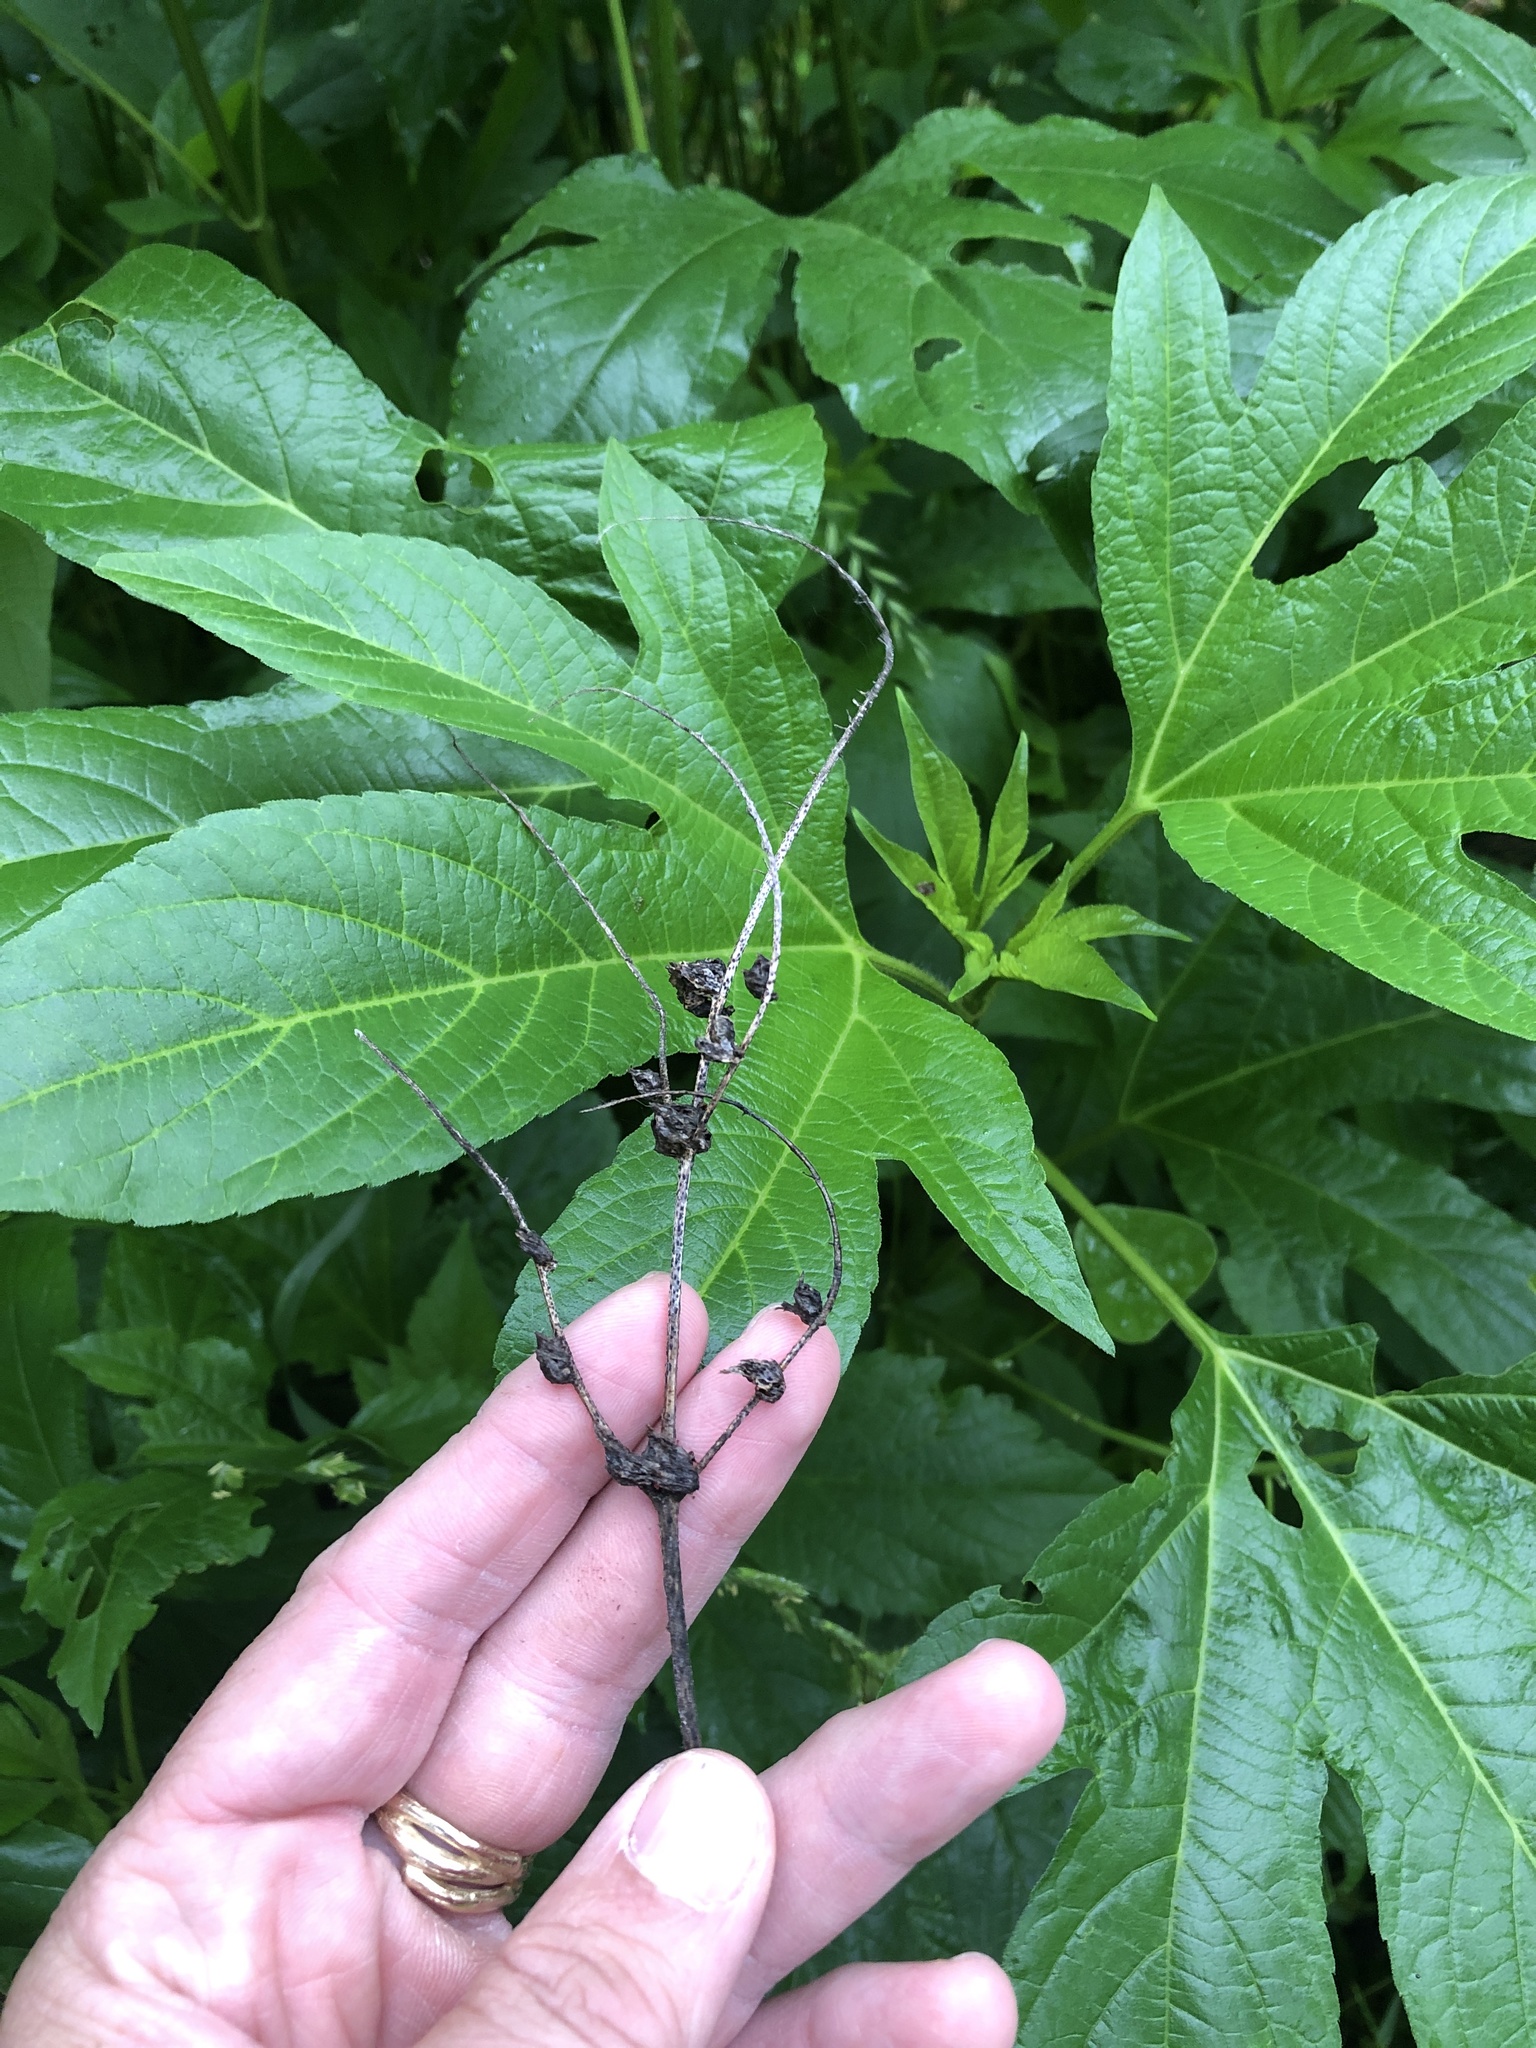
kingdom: Plantae
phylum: Tracheophyta
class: Magnoliopsida
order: Asterales
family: Asteraceae
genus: Ambrosia
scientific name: Ambrosia trifida
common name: Giant ragweed
